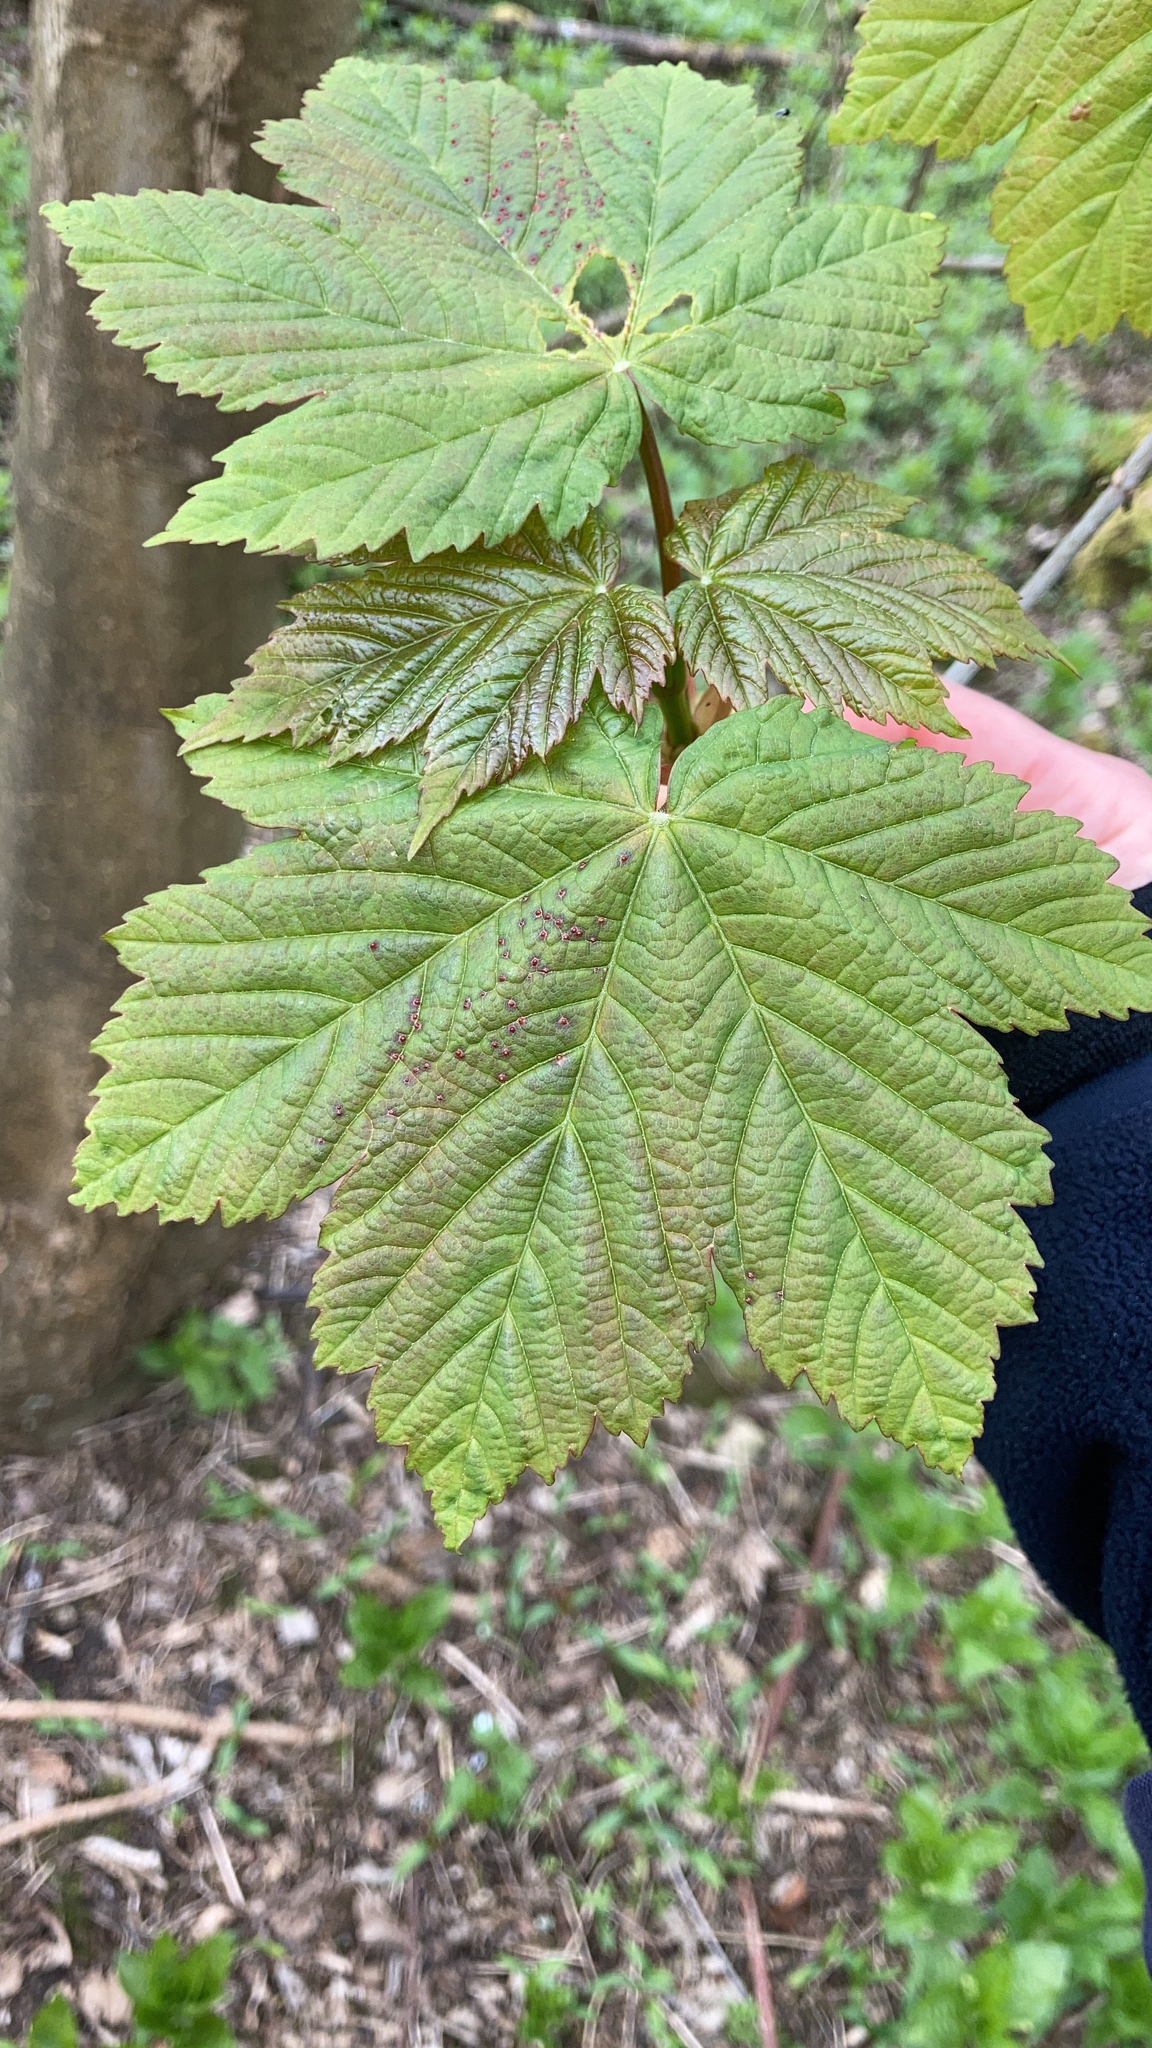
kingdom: Plantae
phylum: Tracheophyta
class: Magnoliopsida
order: Sapindales
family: Sapindaceae
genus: Acer
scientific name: Acer pseudoplatanus
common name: Sycamore
